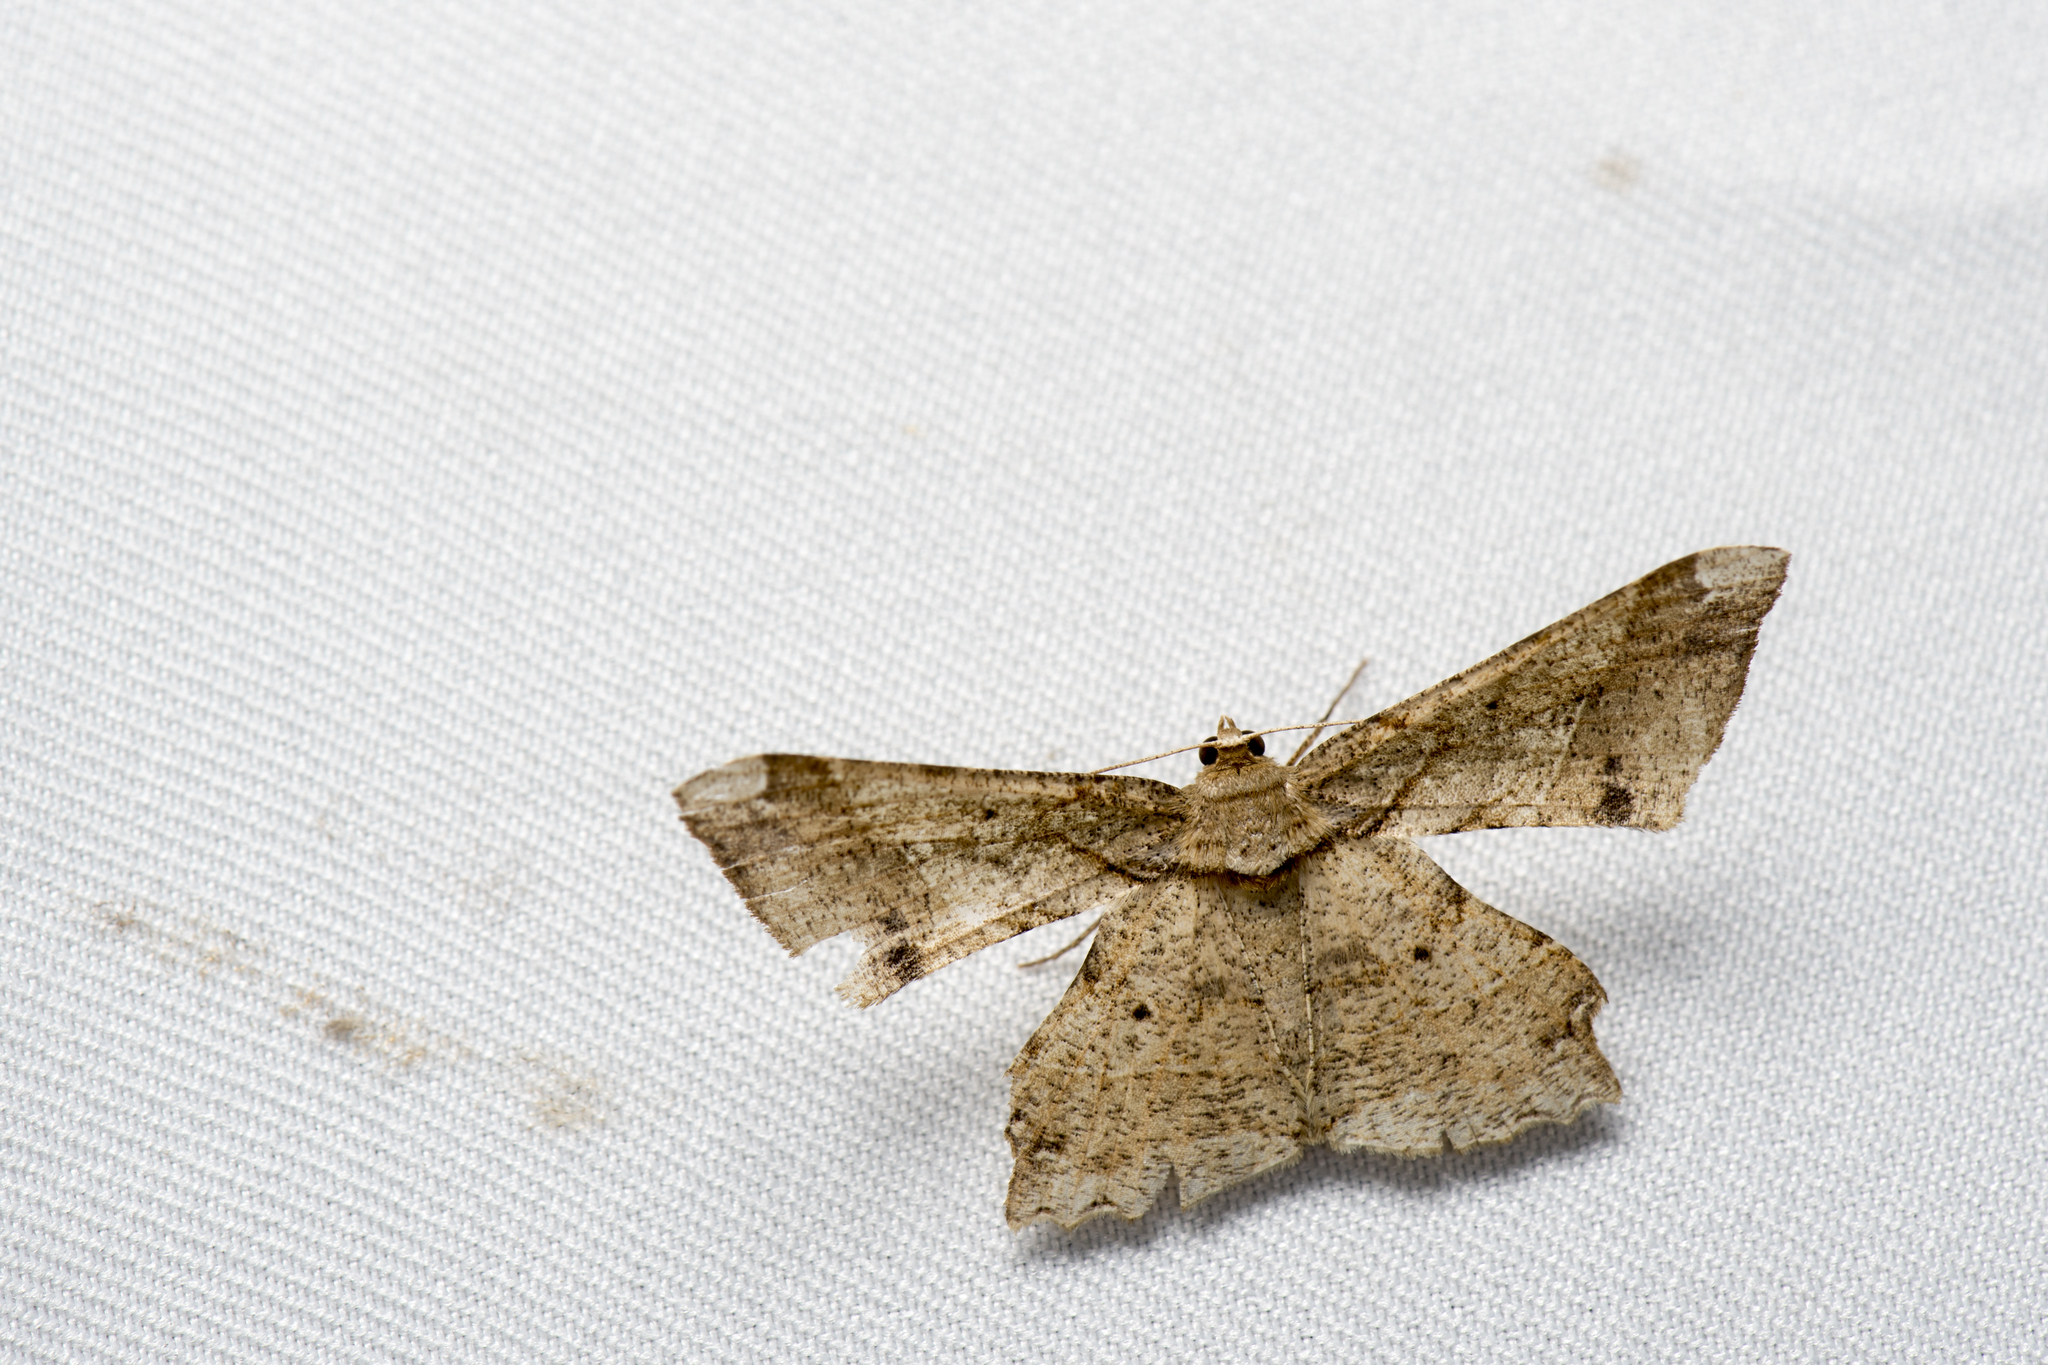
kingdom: Animalia
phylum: Arthropoda
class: Insecta
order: Lepidoptera
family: Geometridae
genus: Krananda
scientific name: Krananda latimarginaria
